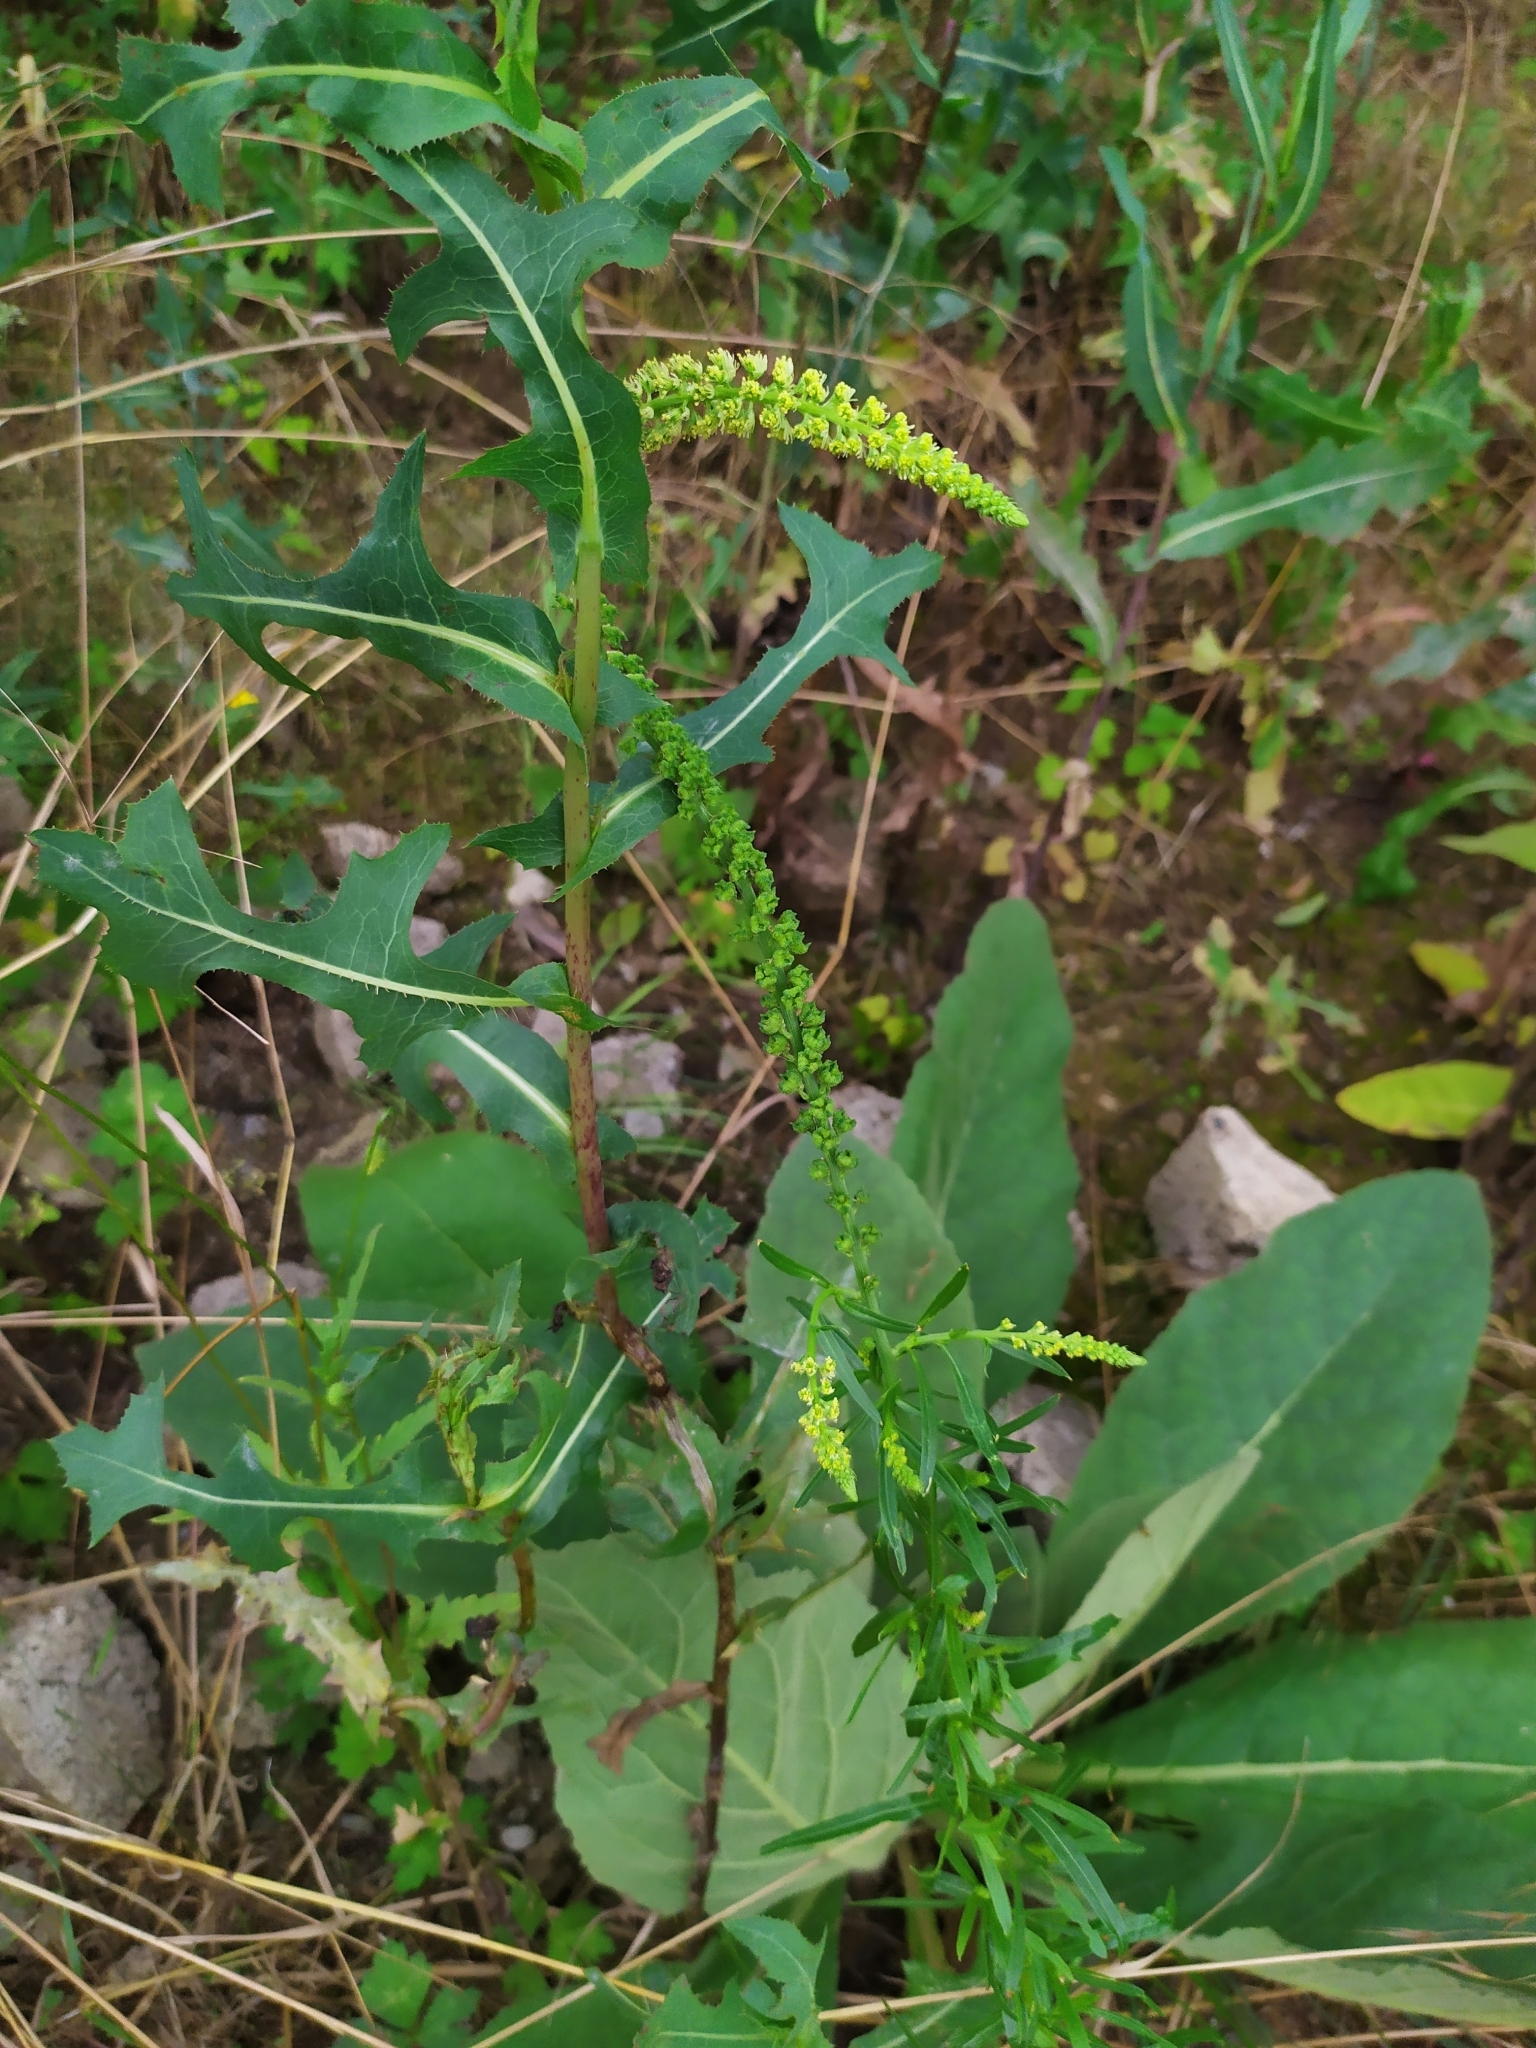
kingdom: Plantae
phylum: Tracheophyta
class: Magnoliopsida
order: Brassicales
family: Resedaceae
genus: Reseda
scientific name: Reseda luteola
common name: Weld
